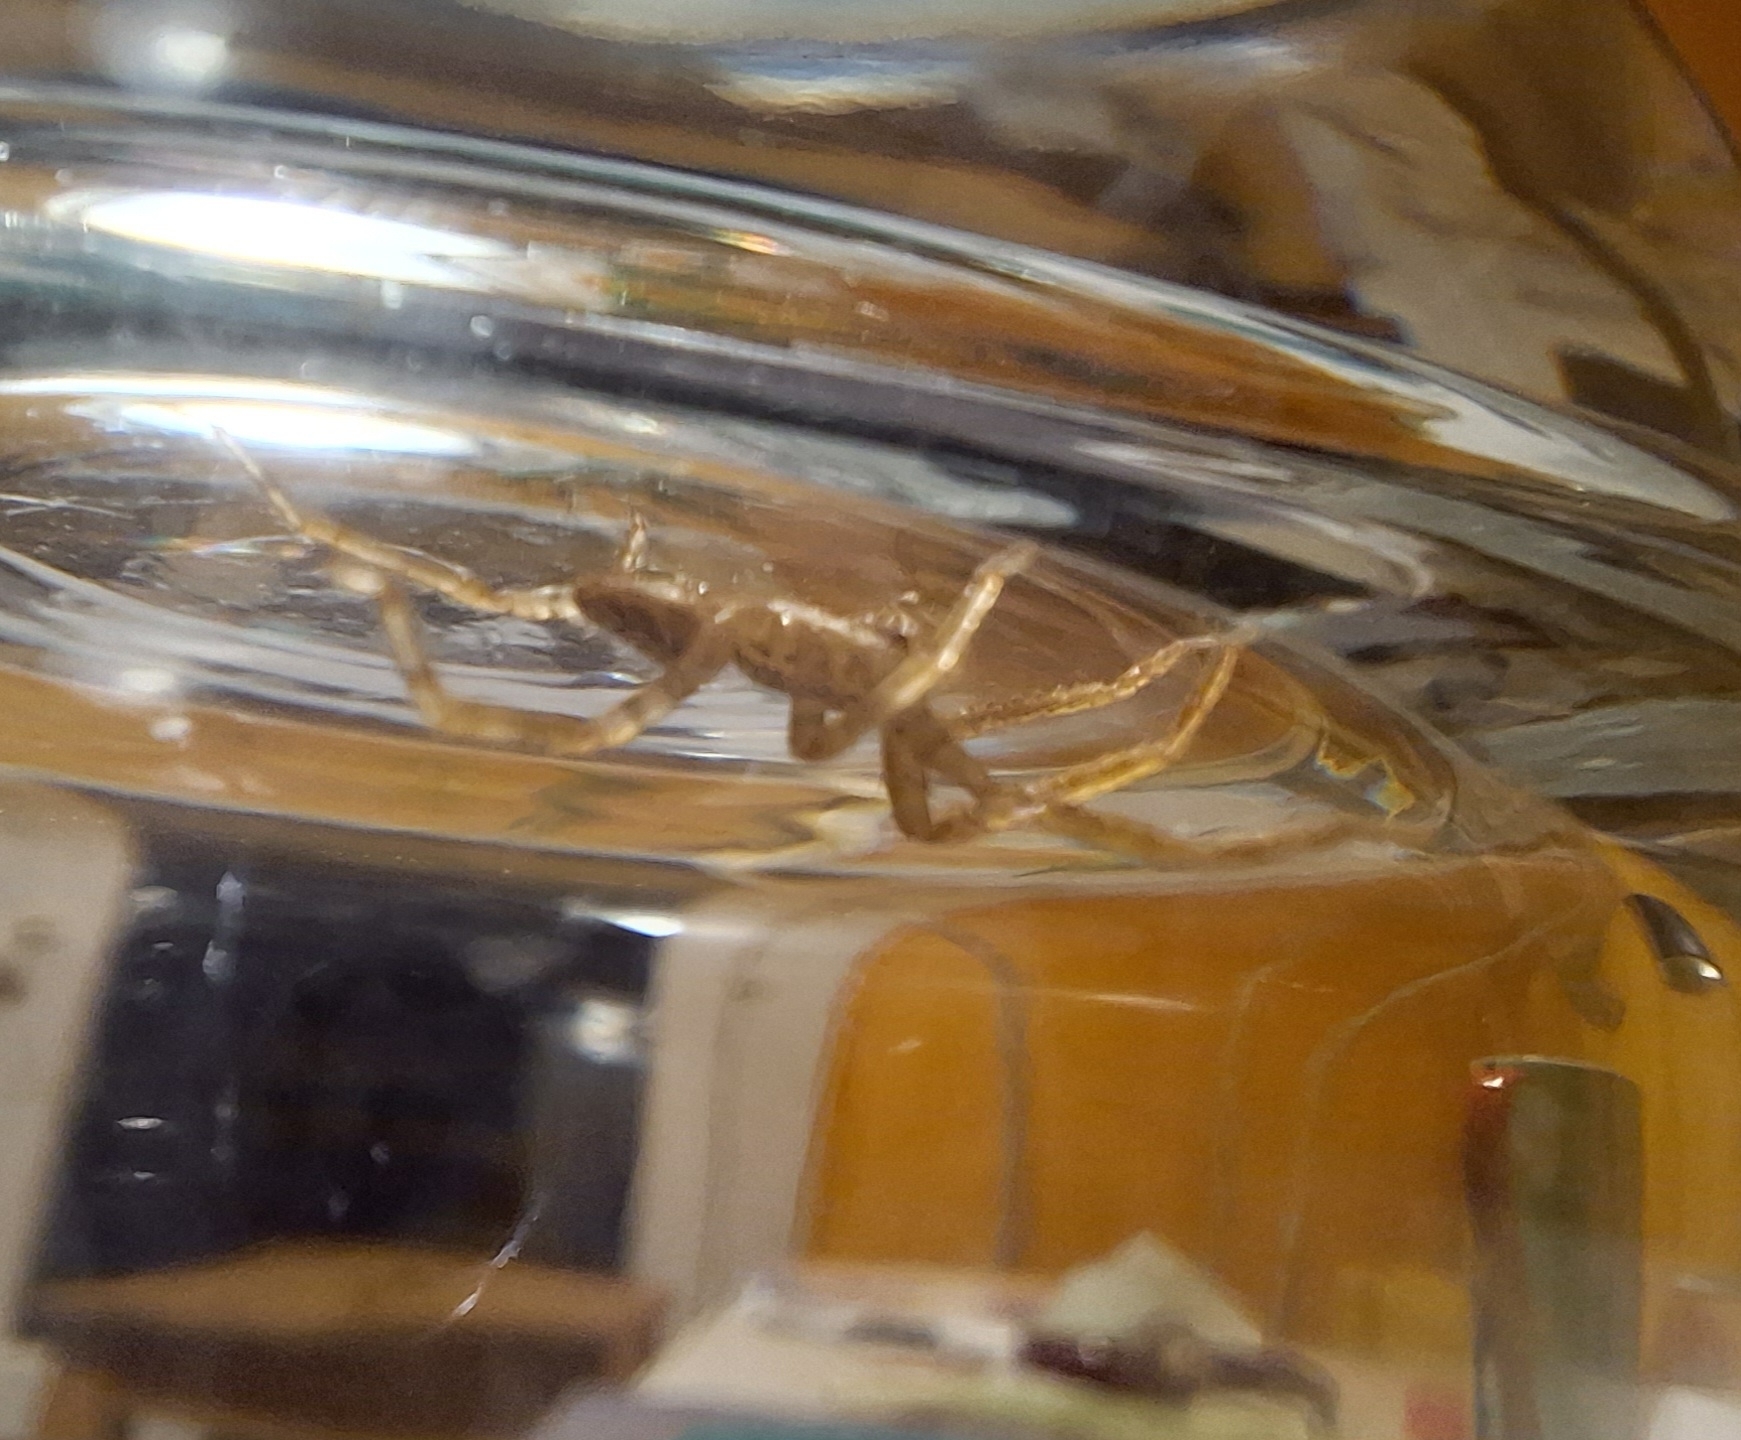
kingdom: Animalia
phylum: Arthropoda
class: Arachnida
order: Araneae
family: Zoropsidae
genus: Zoropsis
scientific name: Zoropsis spinimana
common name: Zoropsid spider
